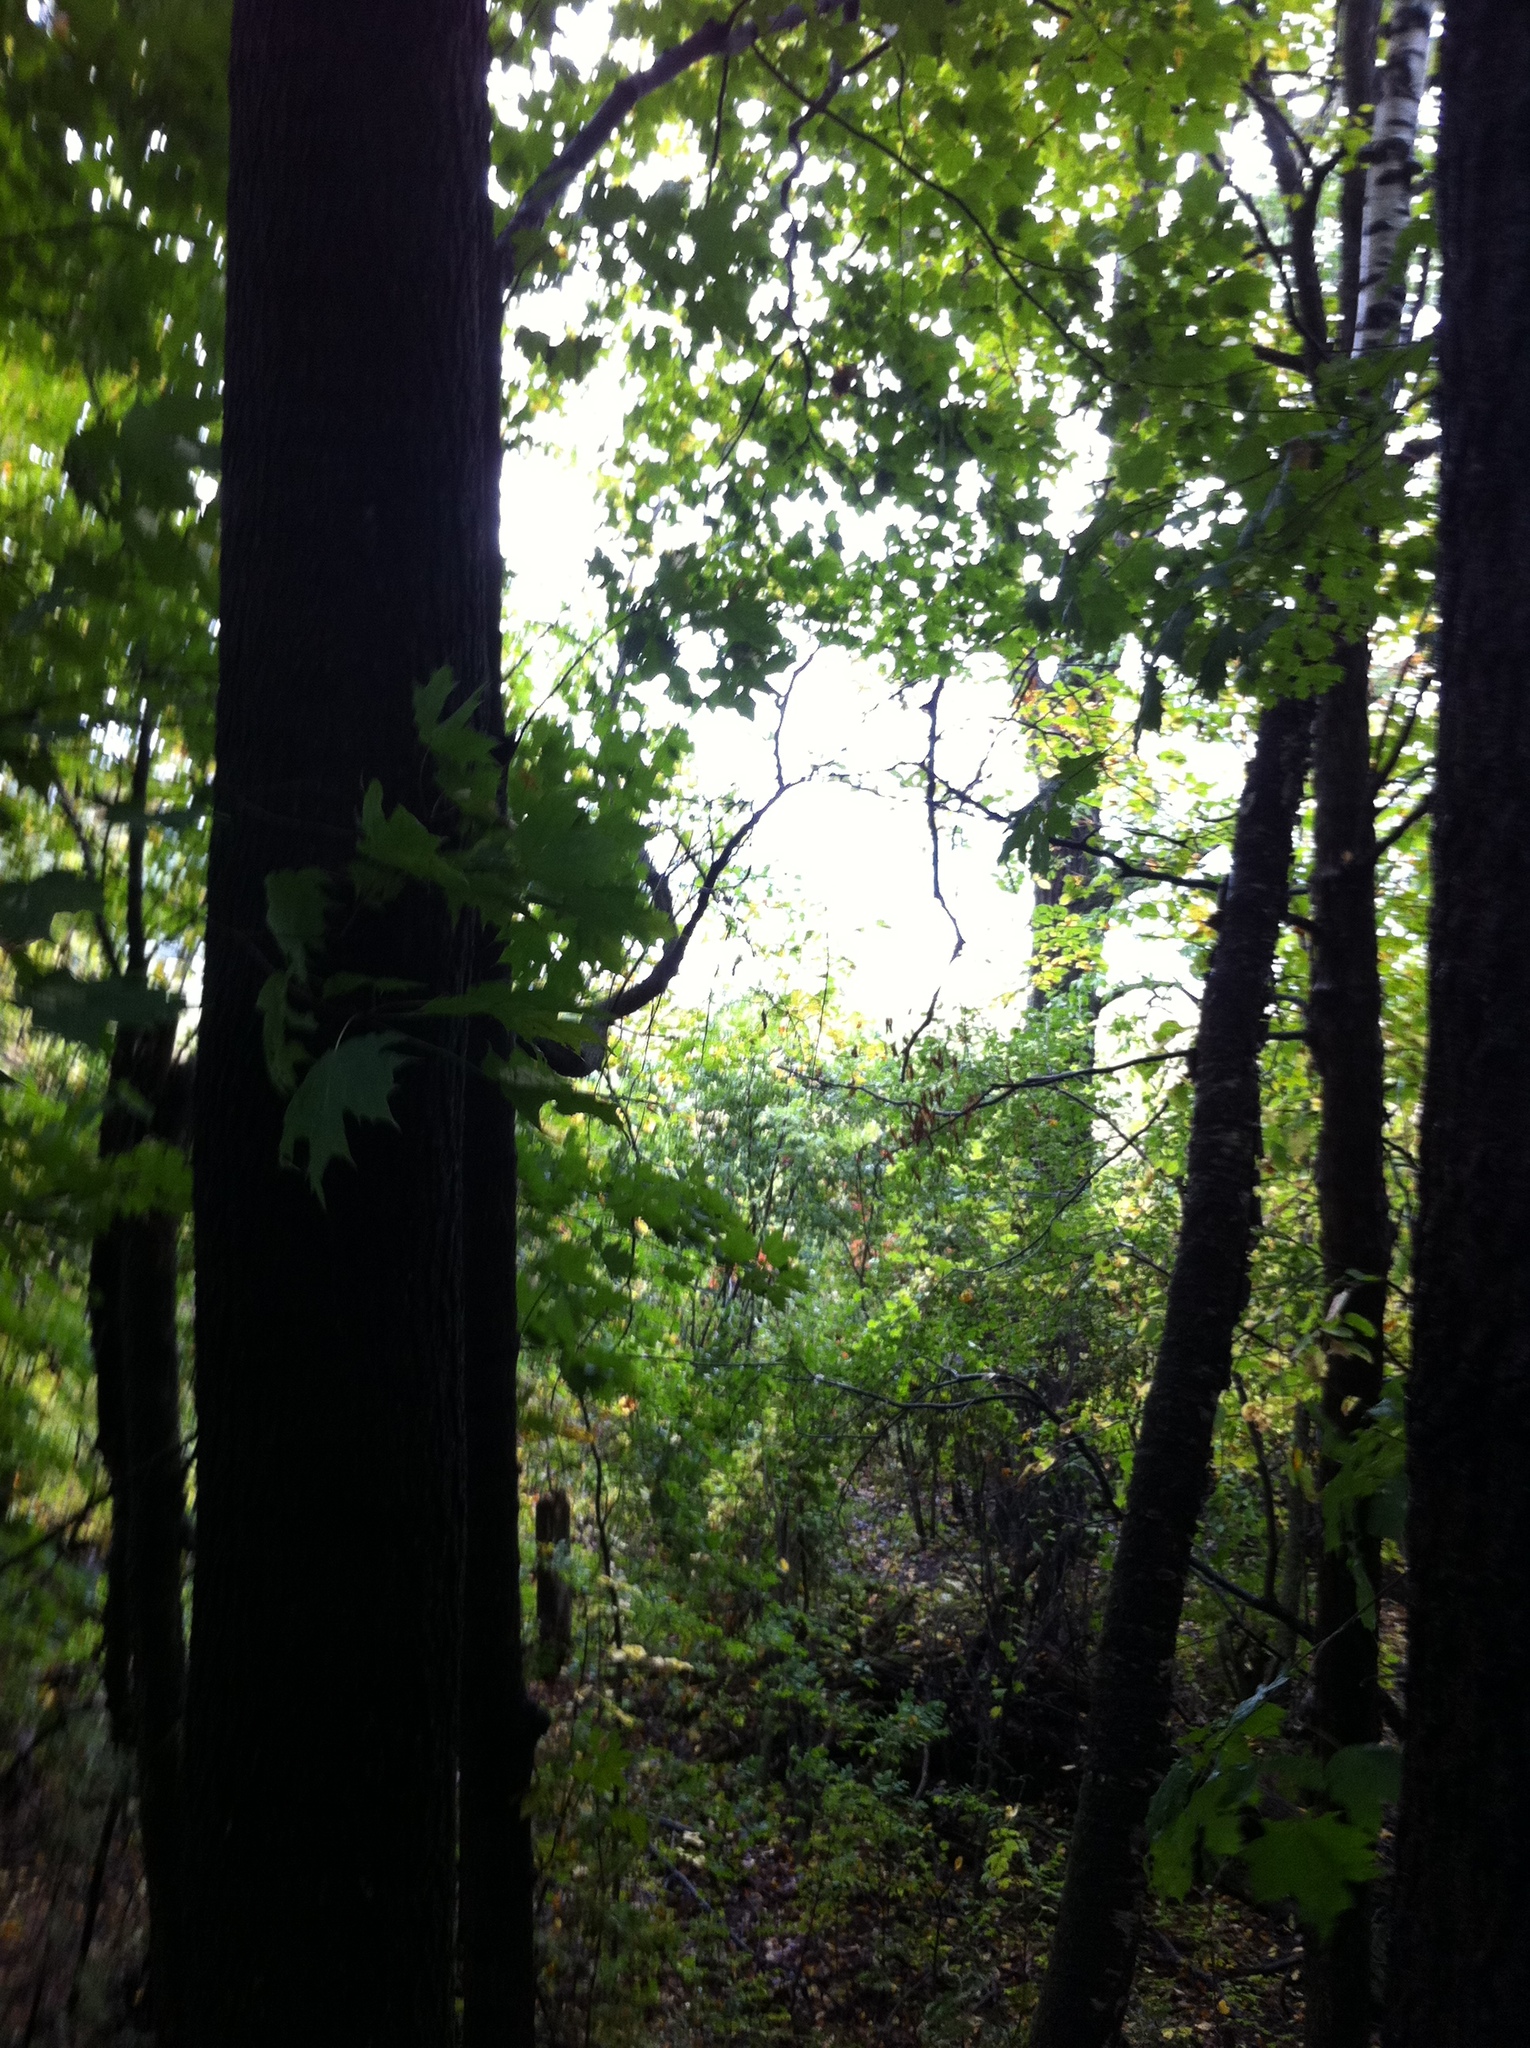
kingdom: Plantae
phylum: Tracheophyta
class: Magnoliopsida
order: Sapindales
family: Sapindaceae
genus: Acer
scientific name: Acer saccharum
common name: Sugar maple
